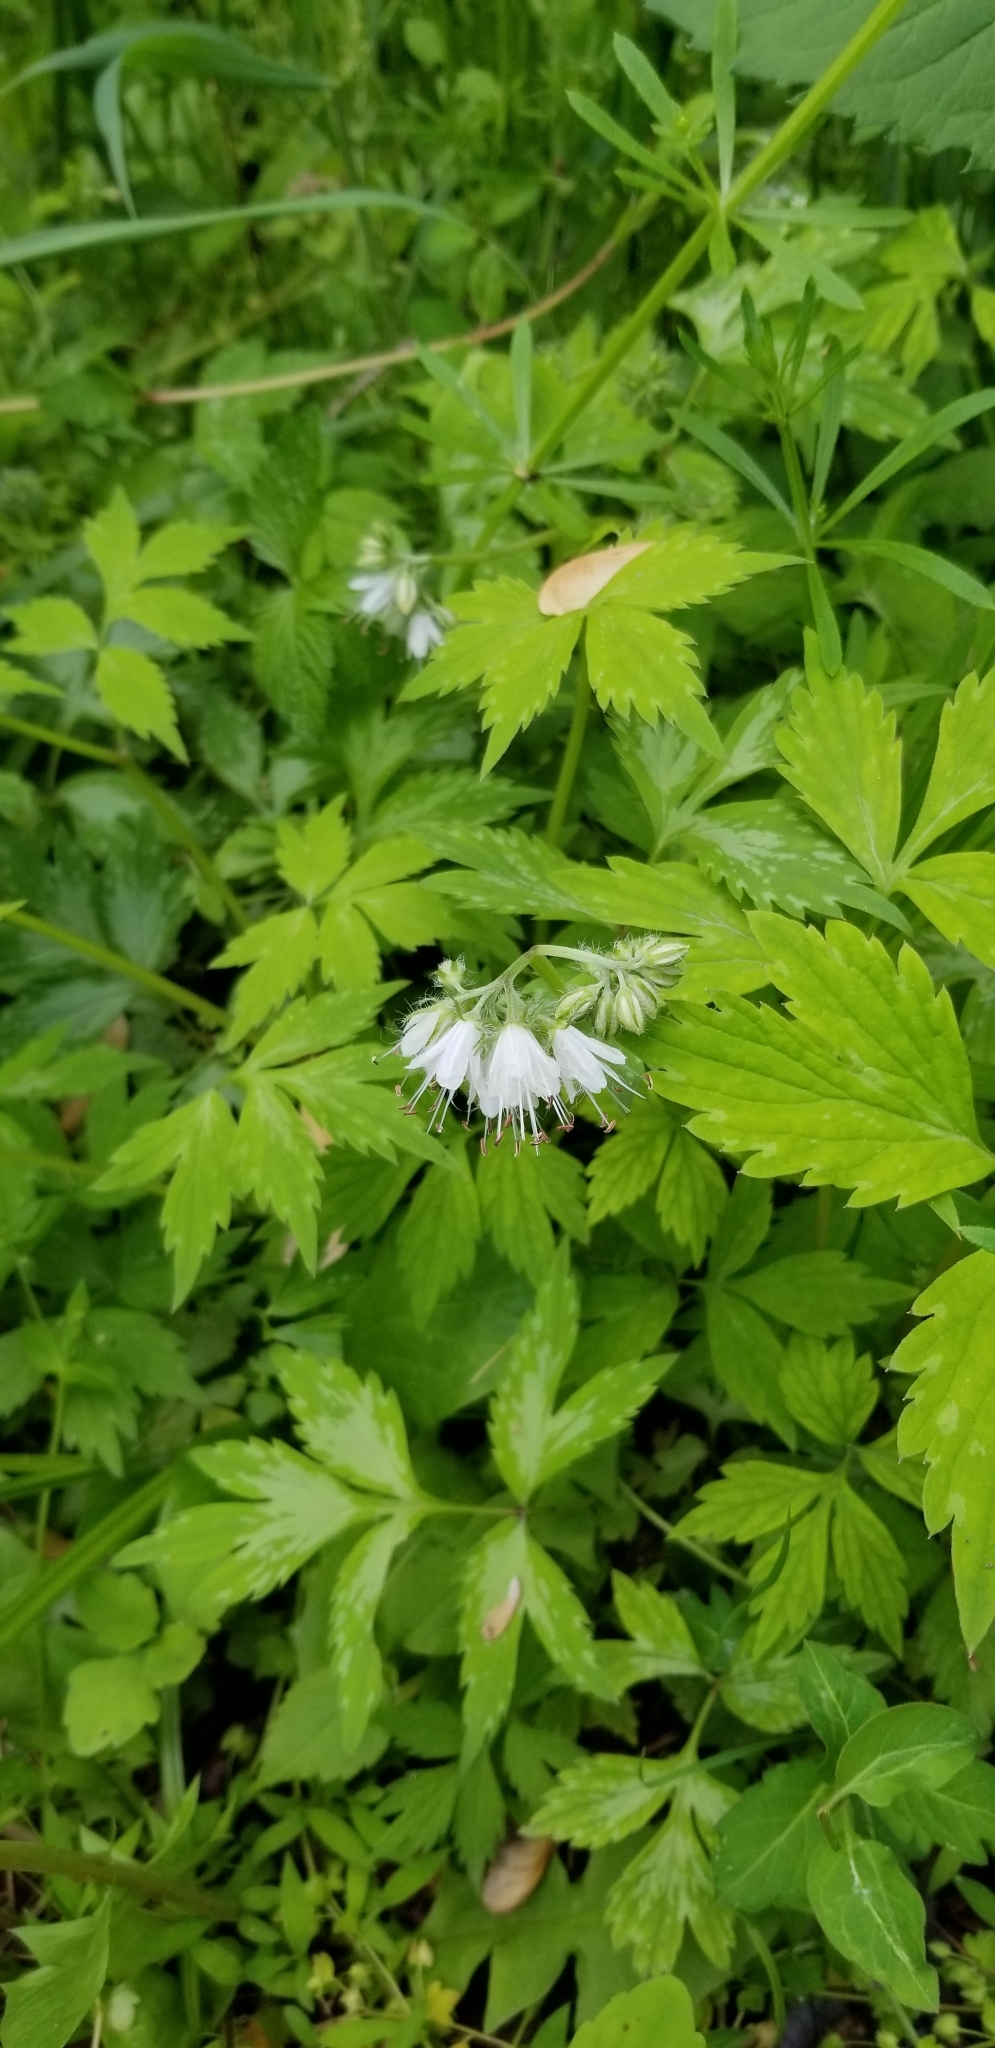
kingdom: Plantae
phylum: Tracheophyta
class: Magnoliopsida
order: Boraginales
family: Hydrophyllaceae
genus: Hydrophyllum
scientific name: Hydrophyllum virginianum
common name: Virginia waterleaf
